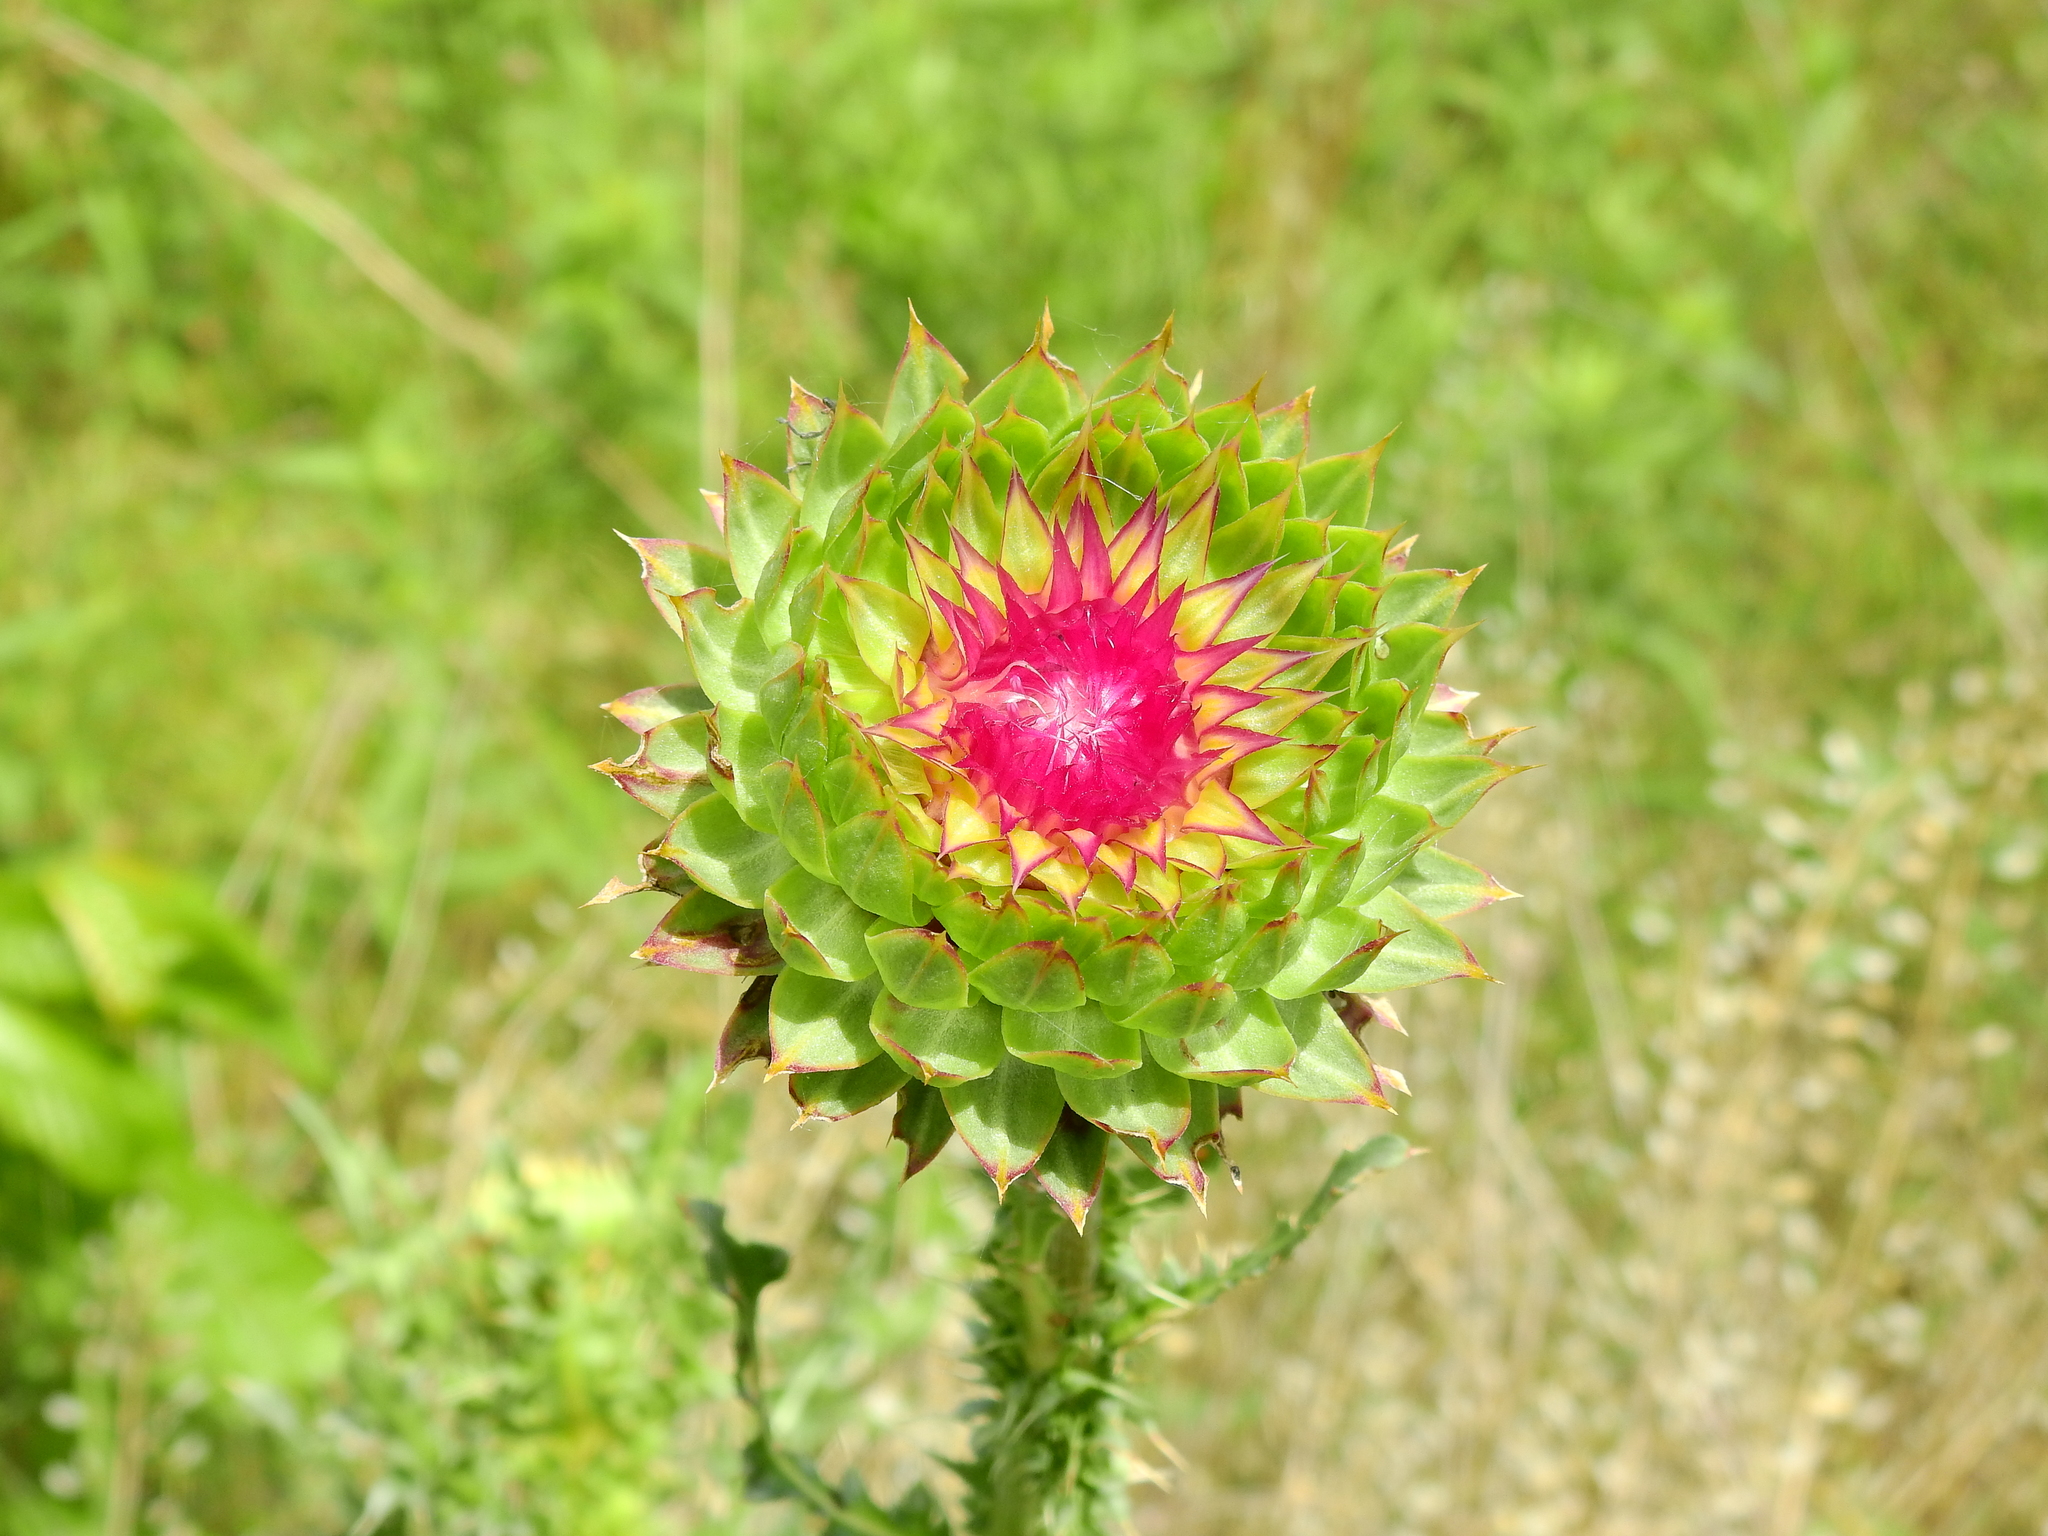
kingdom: Plantae
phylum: Tracheophyta
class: Magnoliopsida
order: Asterales
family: Asteraceae
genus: Carduus
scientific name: Carduus nutans
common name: Musk thistle
